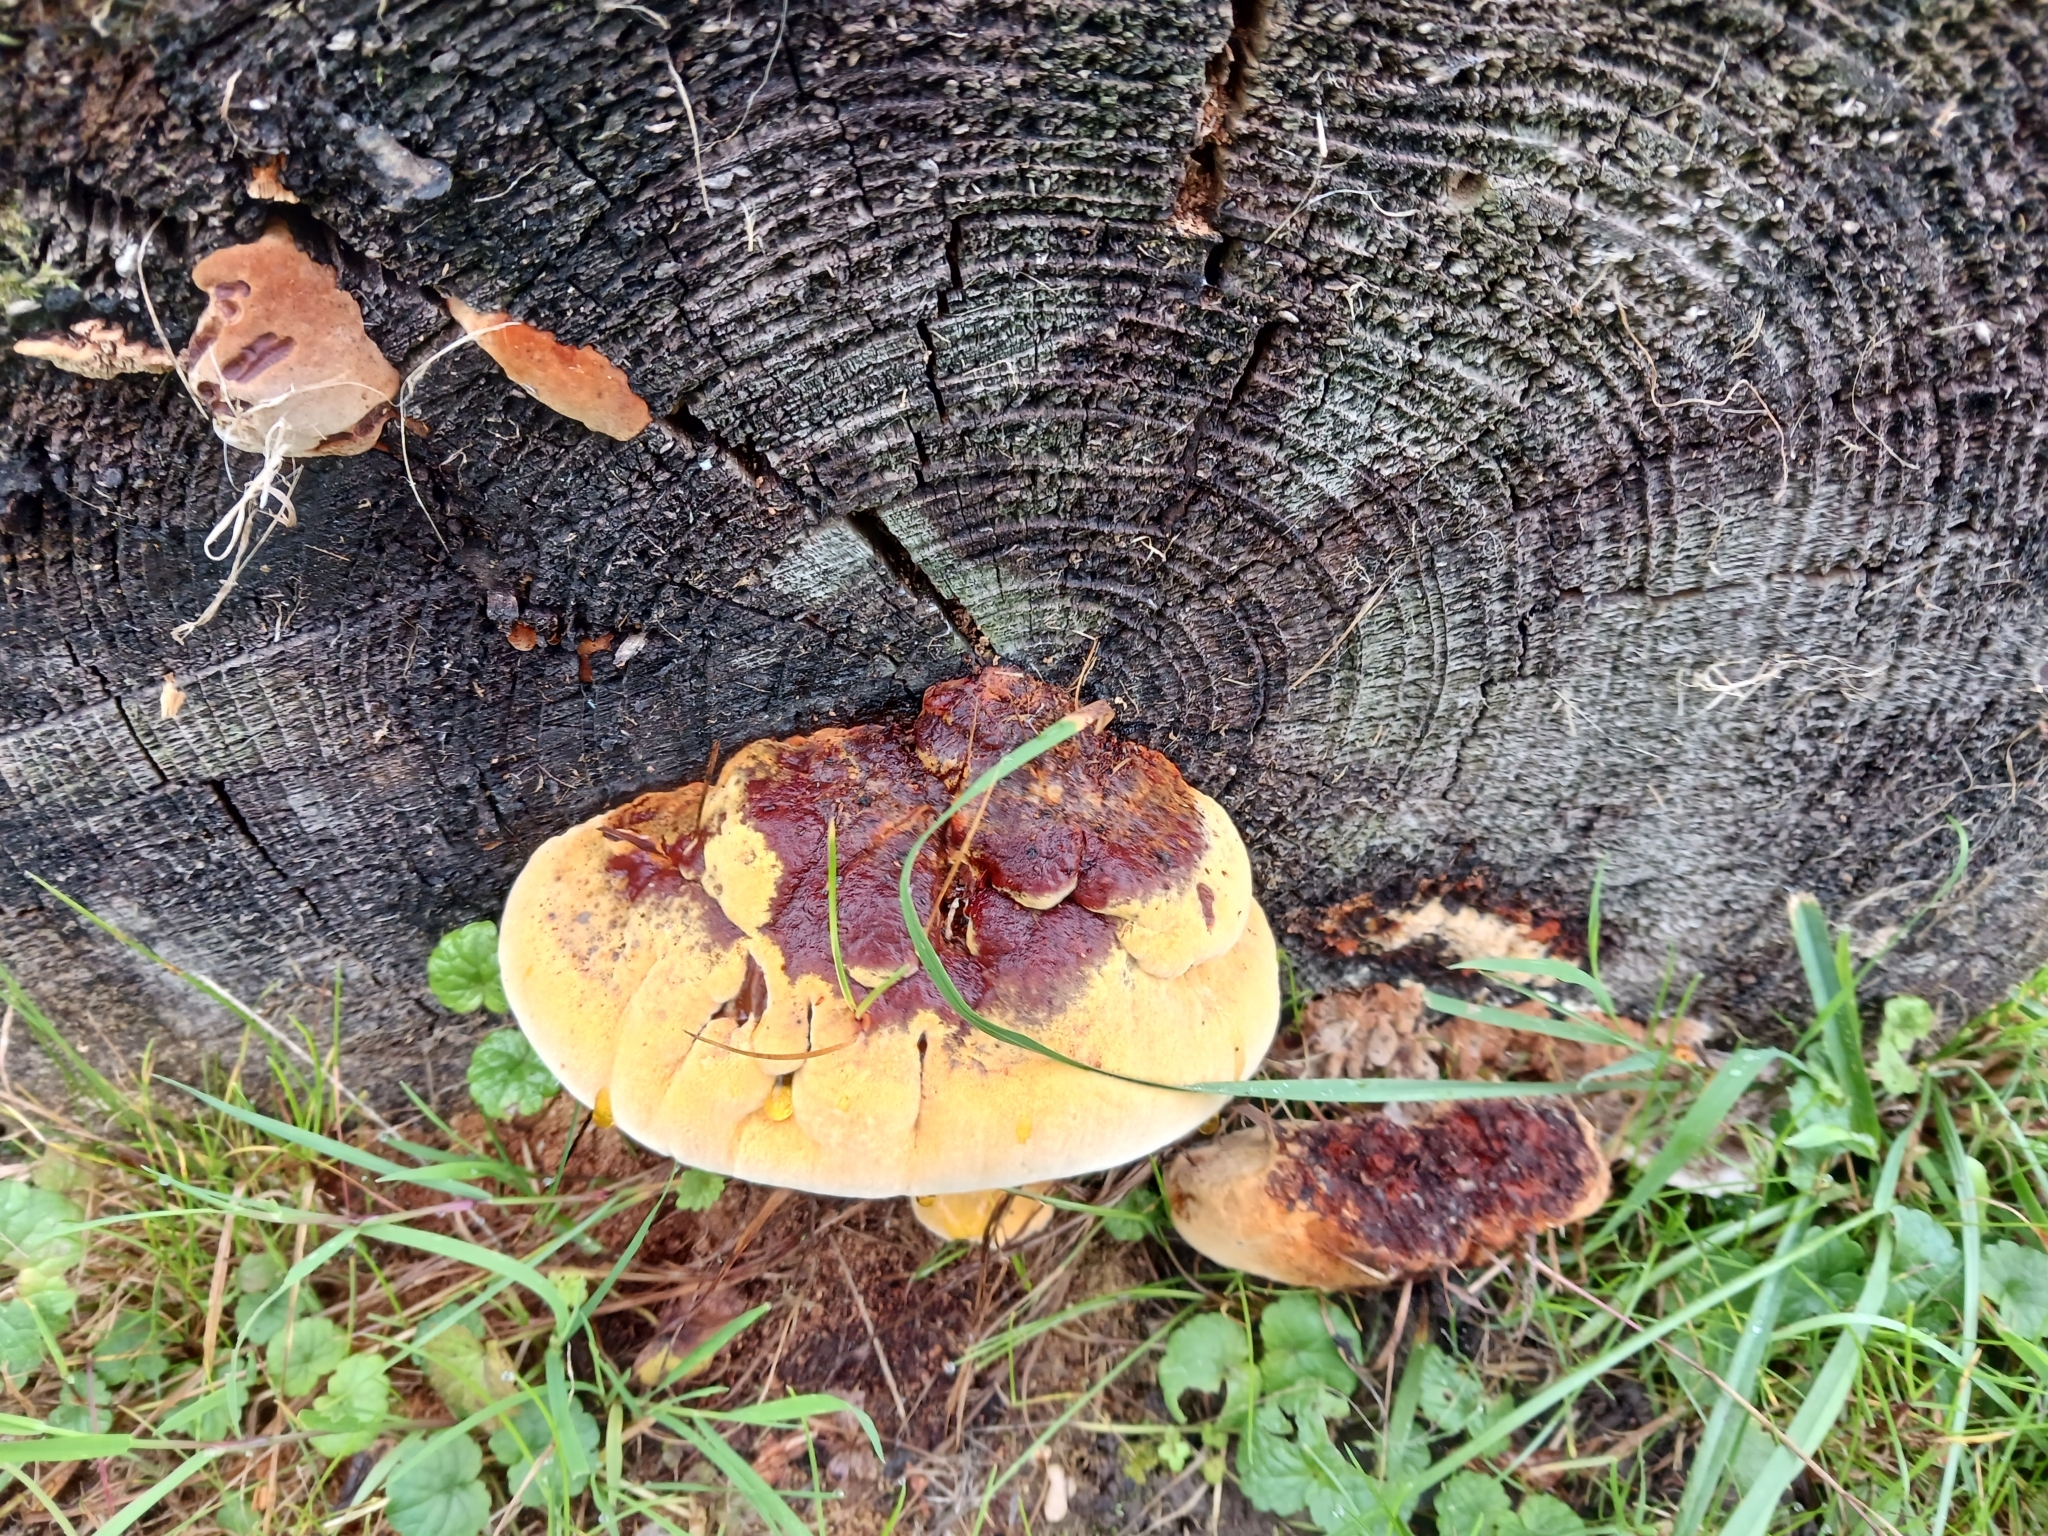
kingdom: Fungi
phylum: Basidiomycota
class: Agaricomycetes
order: Gloeophyllales
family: Gloeophyllaceae
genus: Gloeophyllum
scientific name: Gloeophyllum odoratum
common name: Anise mazegill
